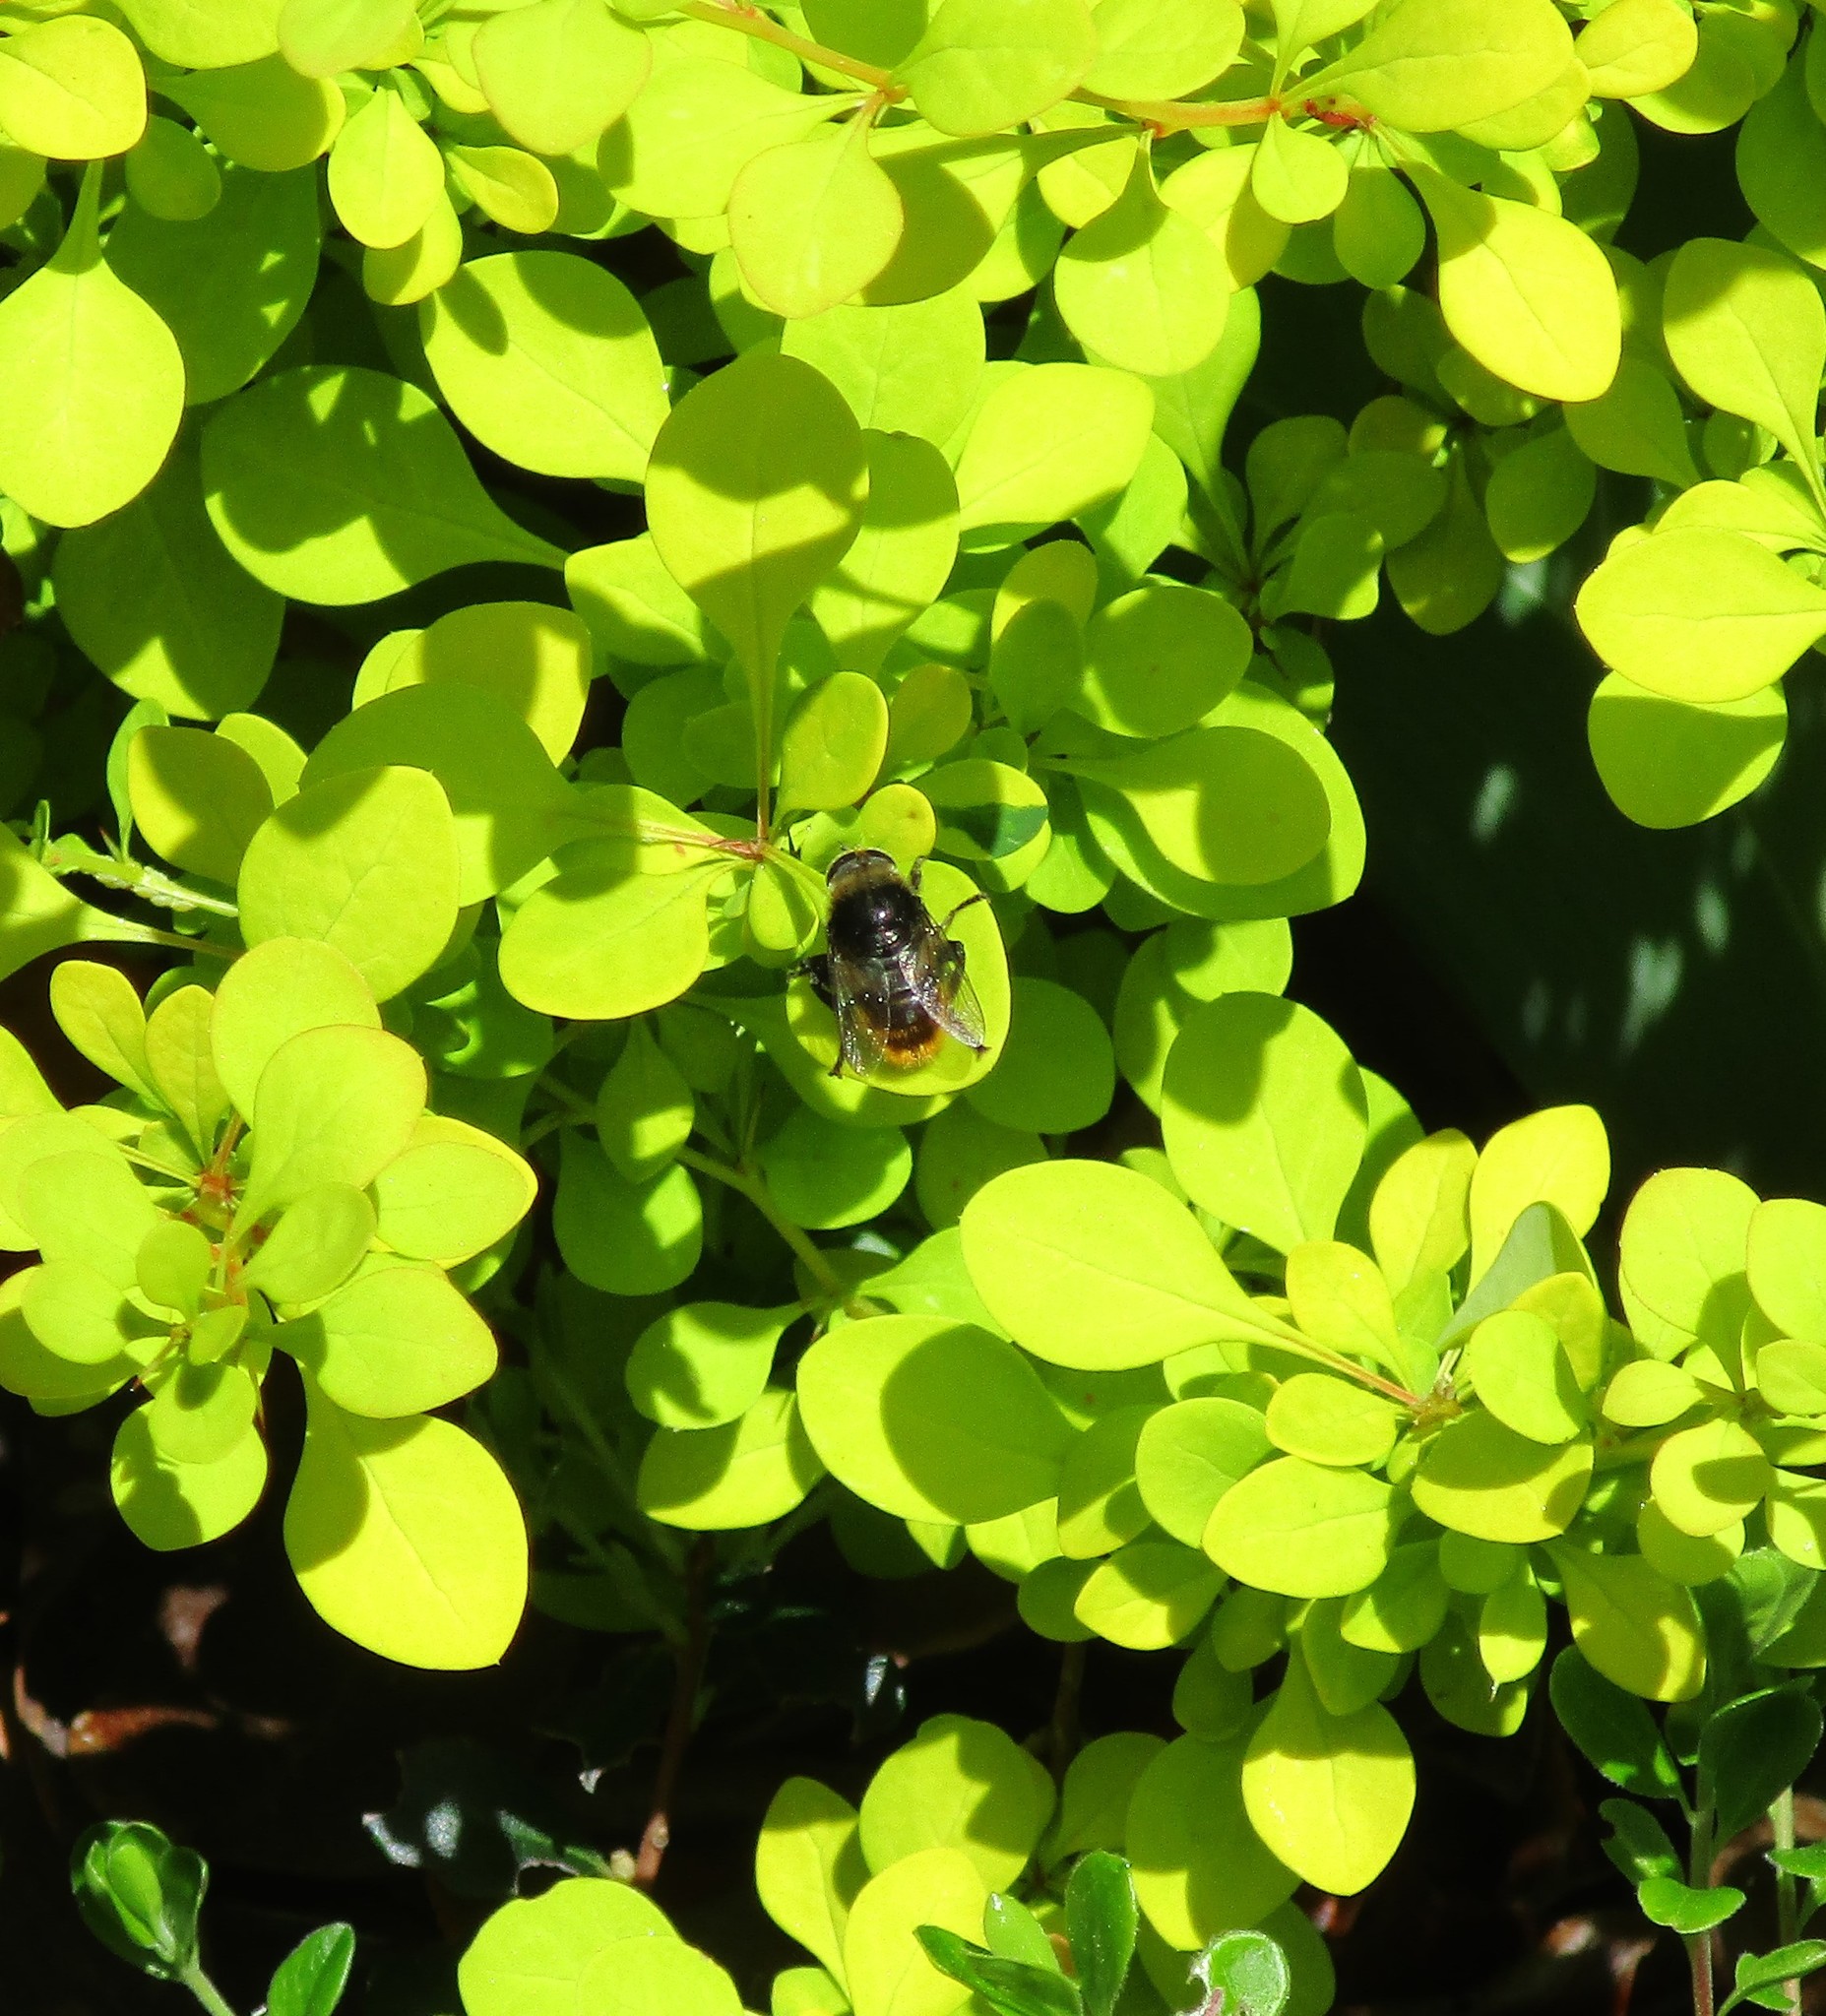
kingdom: Animalia
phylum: Arthropoda
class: Insecta
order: Diptera
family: Syrphidae
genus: Merodon
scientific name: Merodon equestris
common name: Greater bulb-fly
